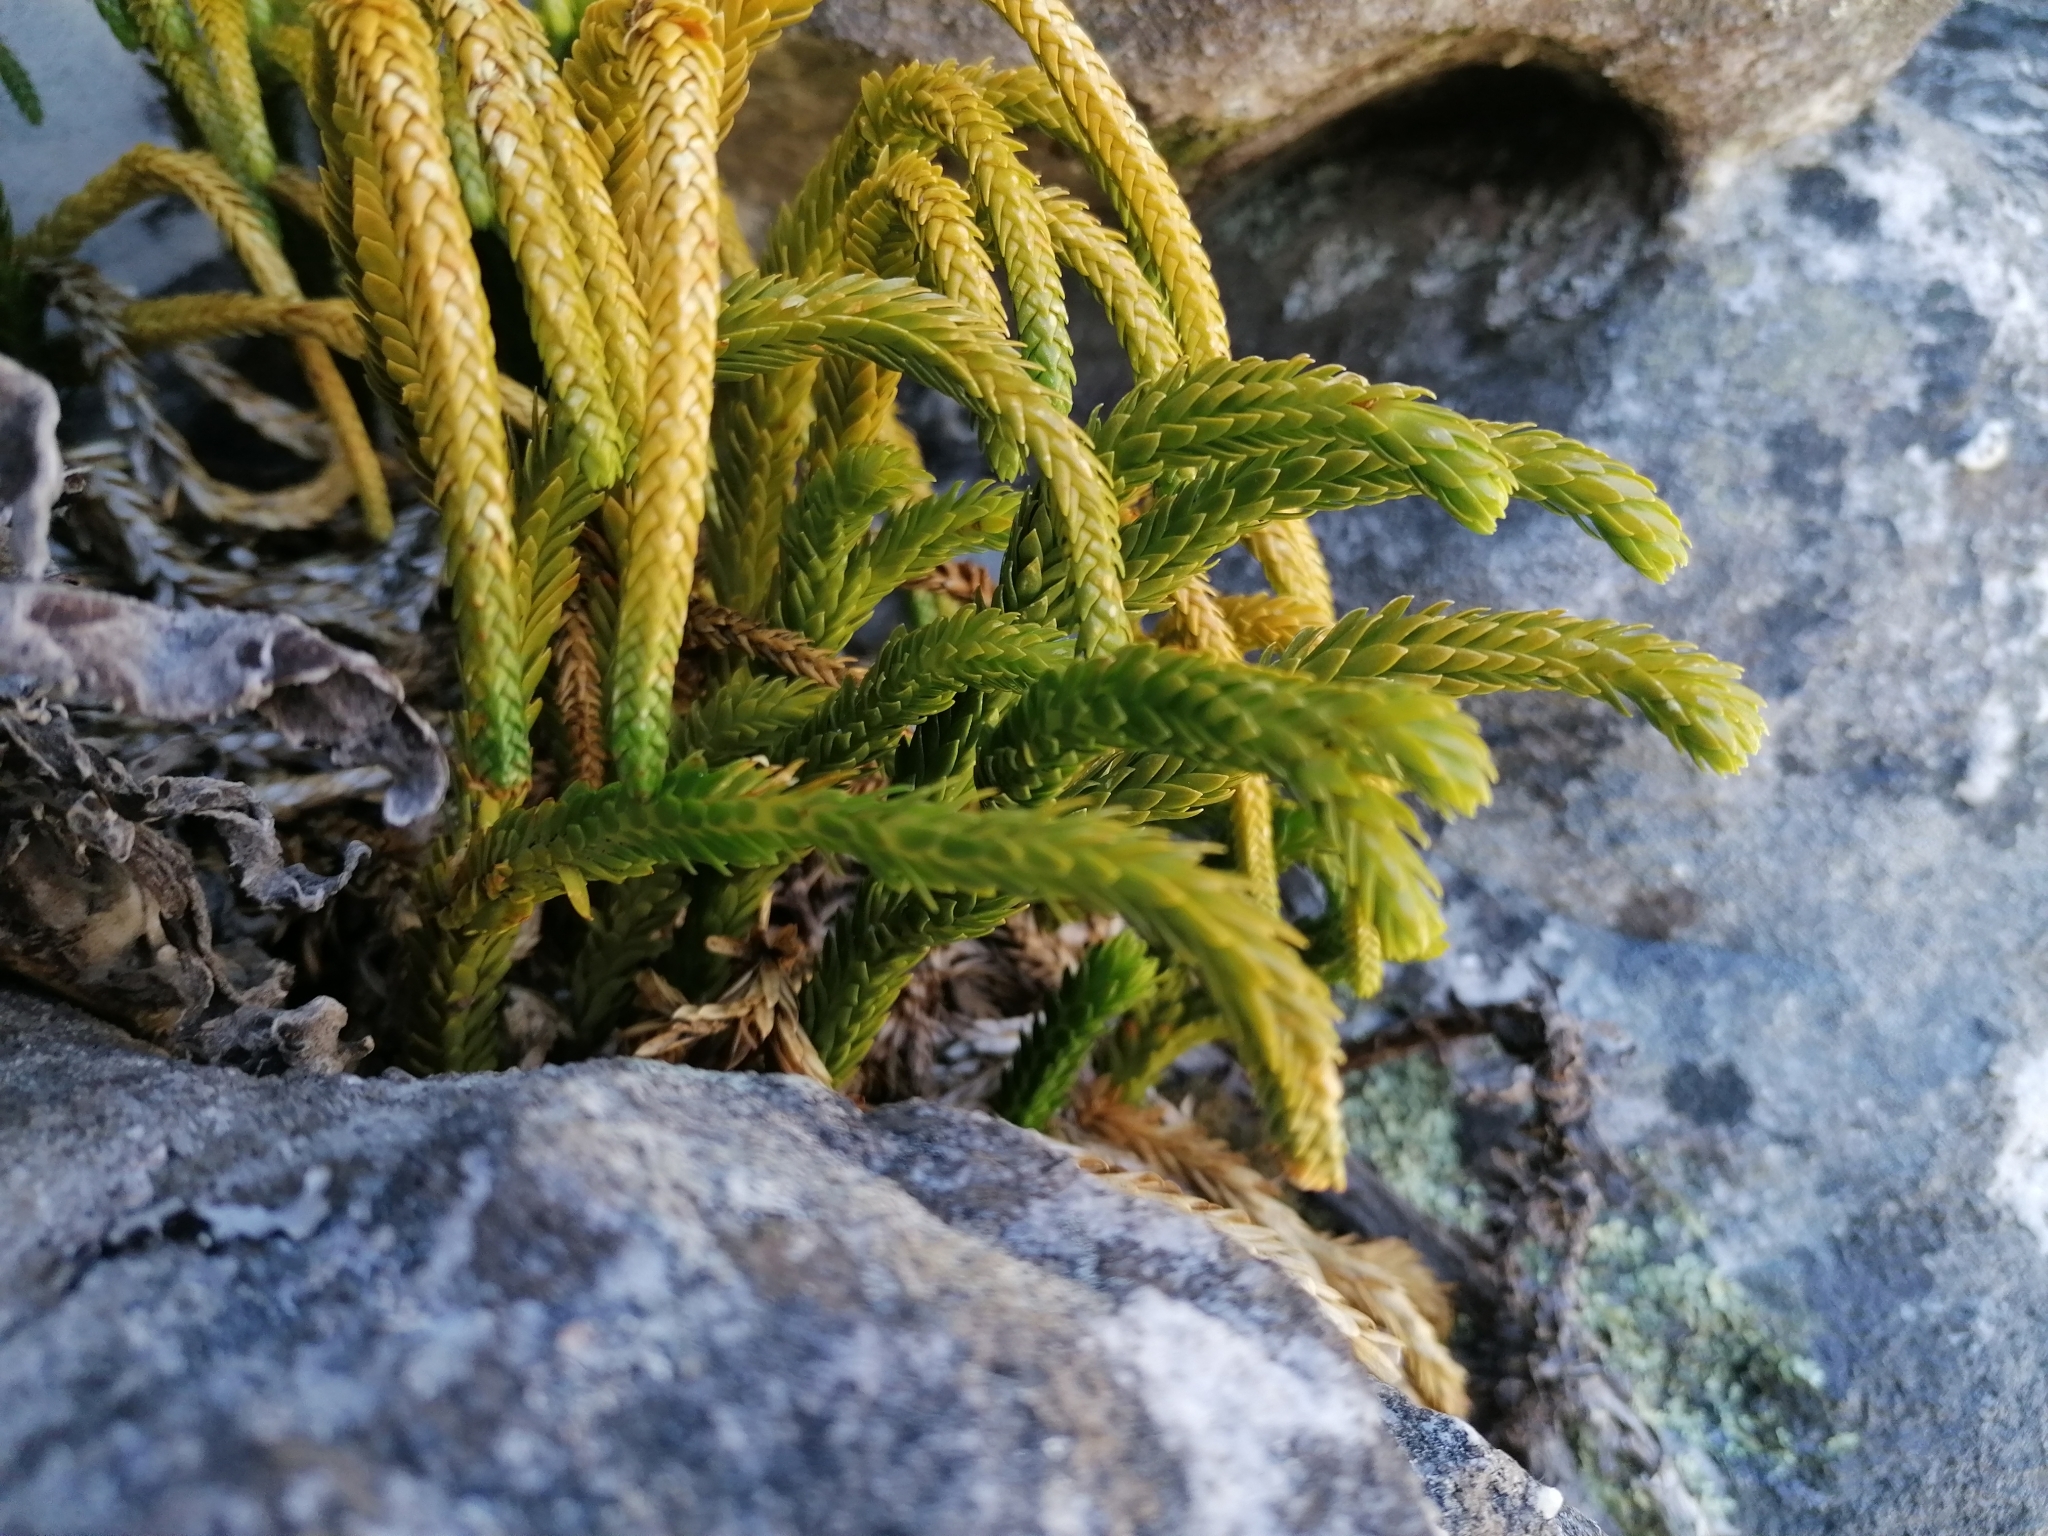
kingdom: Plantae
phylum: Tracheophyta
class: Lycopodiopsida
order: Lycopodiales
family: Lycopodiaceae
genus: Phlegmariurus
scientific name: Phlegmariurus gnidioides
